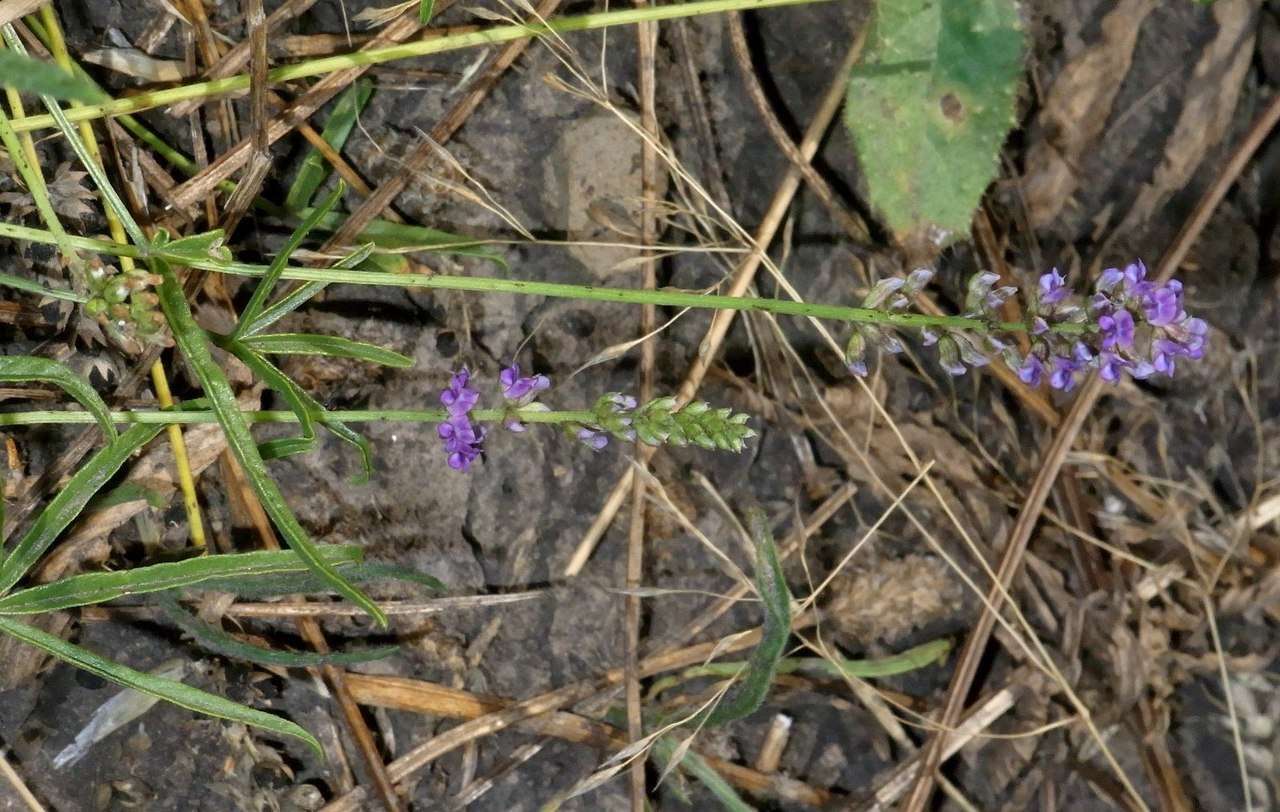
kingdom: Plantae
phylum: Tracheophyta
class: Magnoliopsida
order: Fabales
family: Fabaceae
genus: Cullen
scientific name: Cullen tenax
